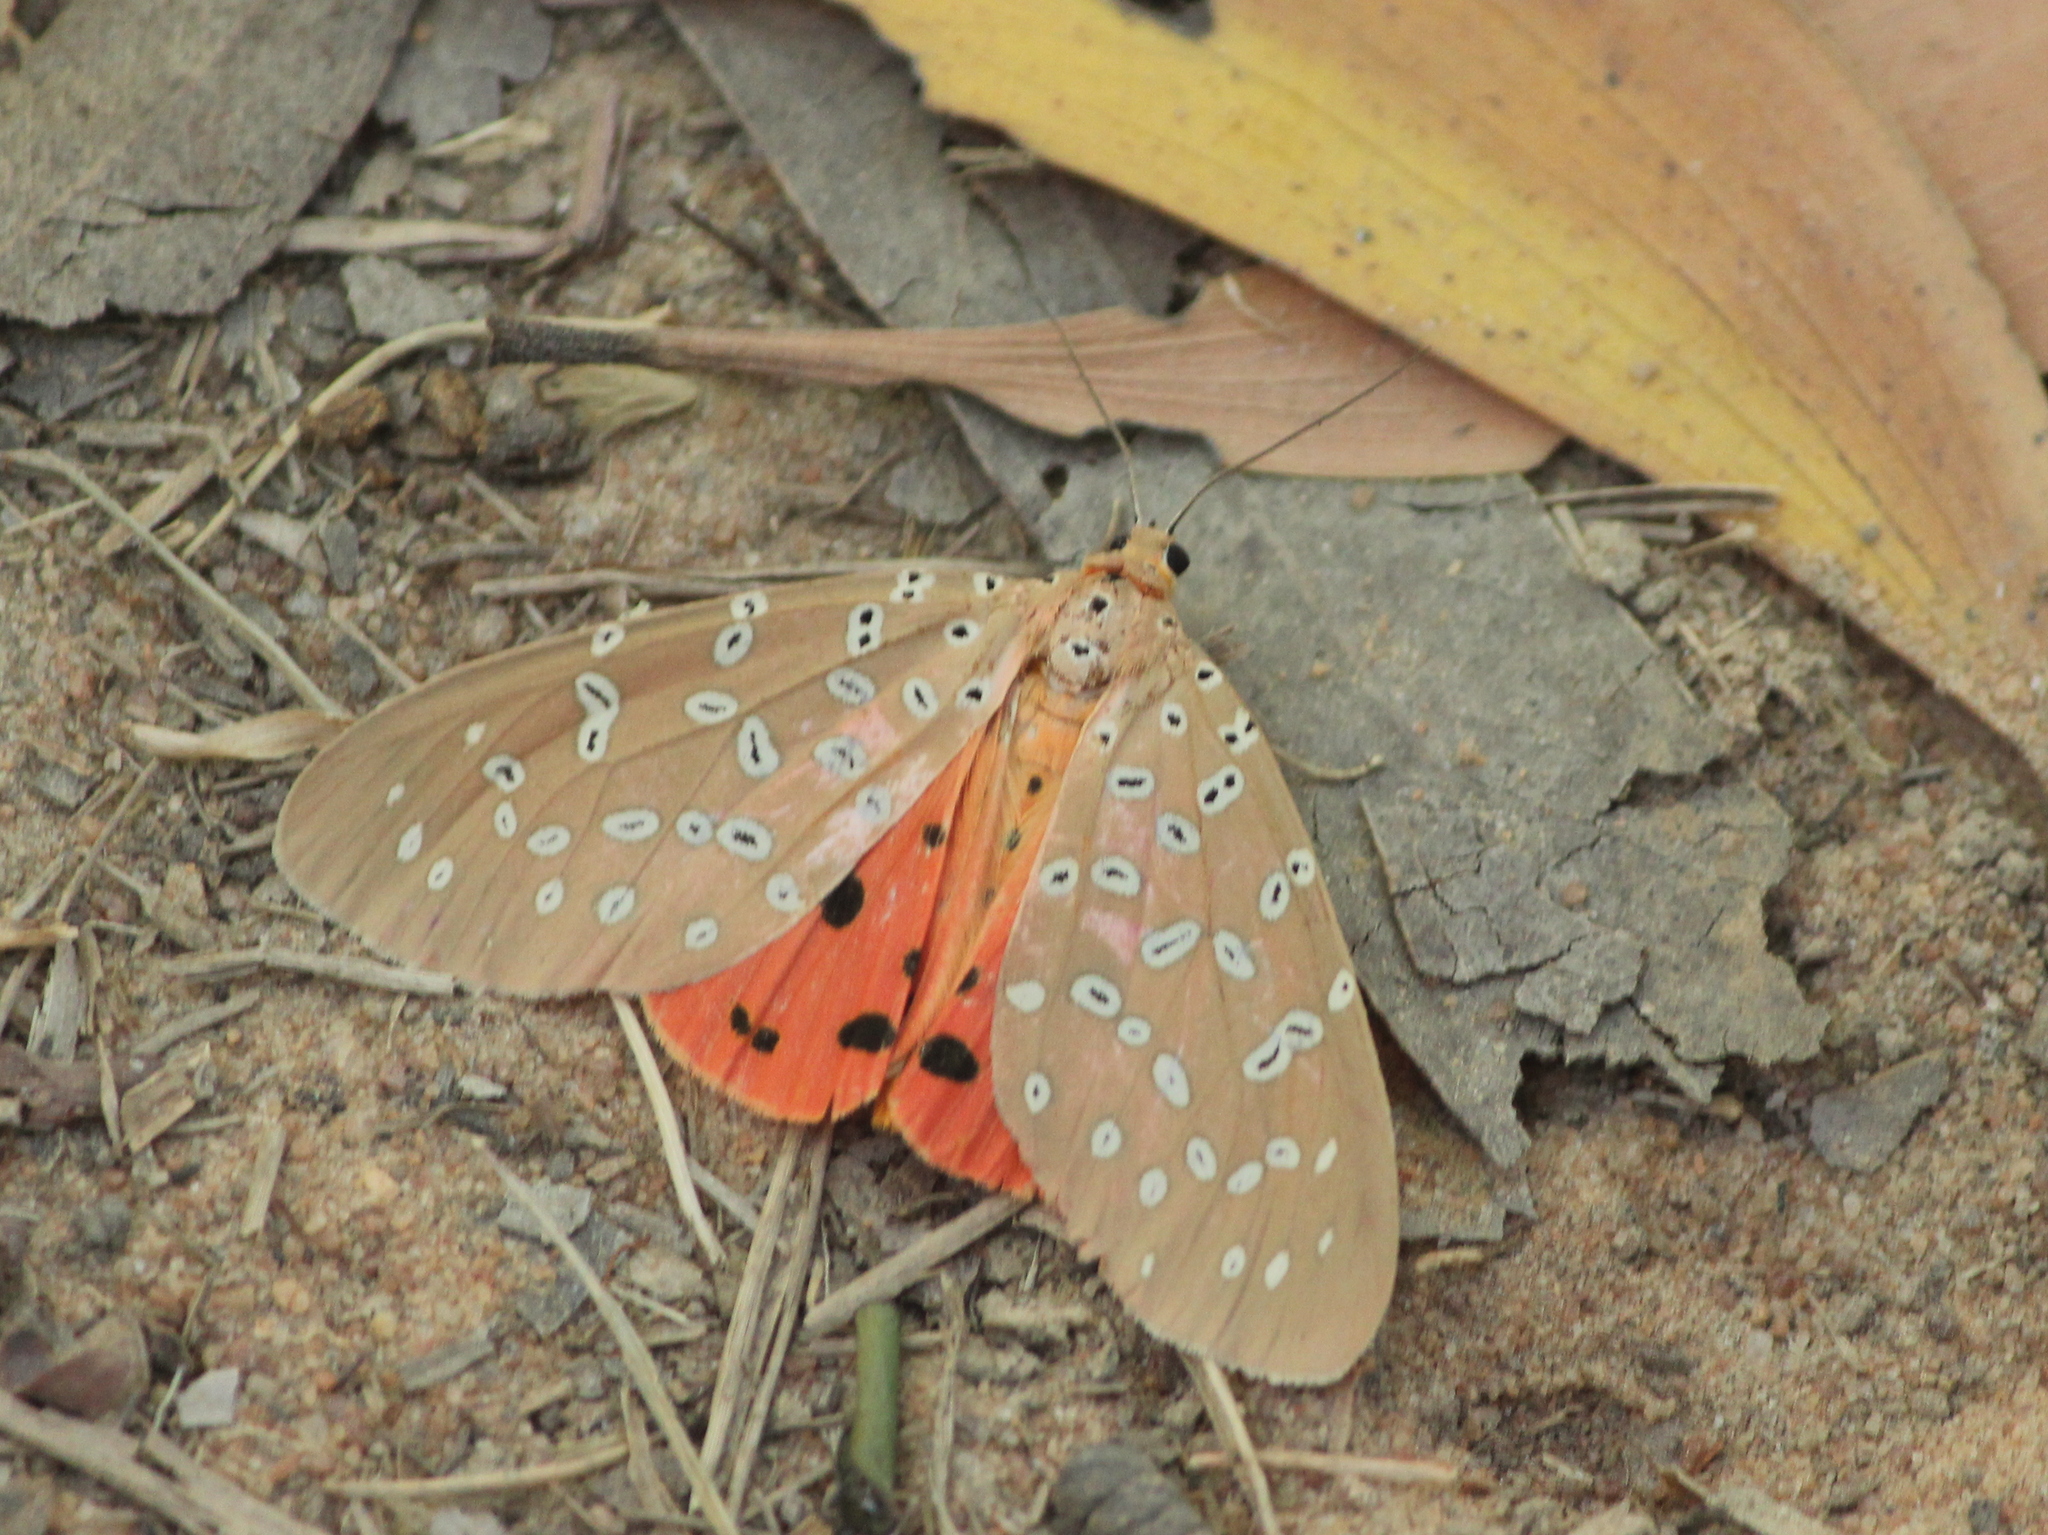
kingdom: Animalia
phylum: Arthropoda
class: Insecta
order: Lepidoptera
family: Erebidae
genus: Mangina
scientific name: Mangina argus
